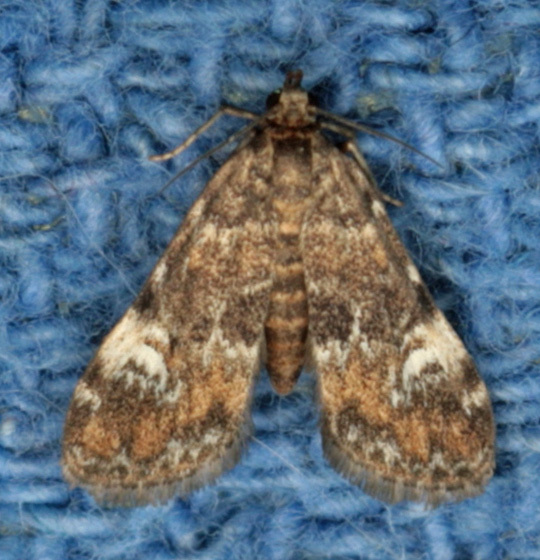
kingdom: Animalia
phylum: Arthropoda
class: Insecta
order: Lepidoptera
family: Crambidae
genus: Elophila
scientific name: Elophila obliteralis
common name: Waterlily leafcutter moth
